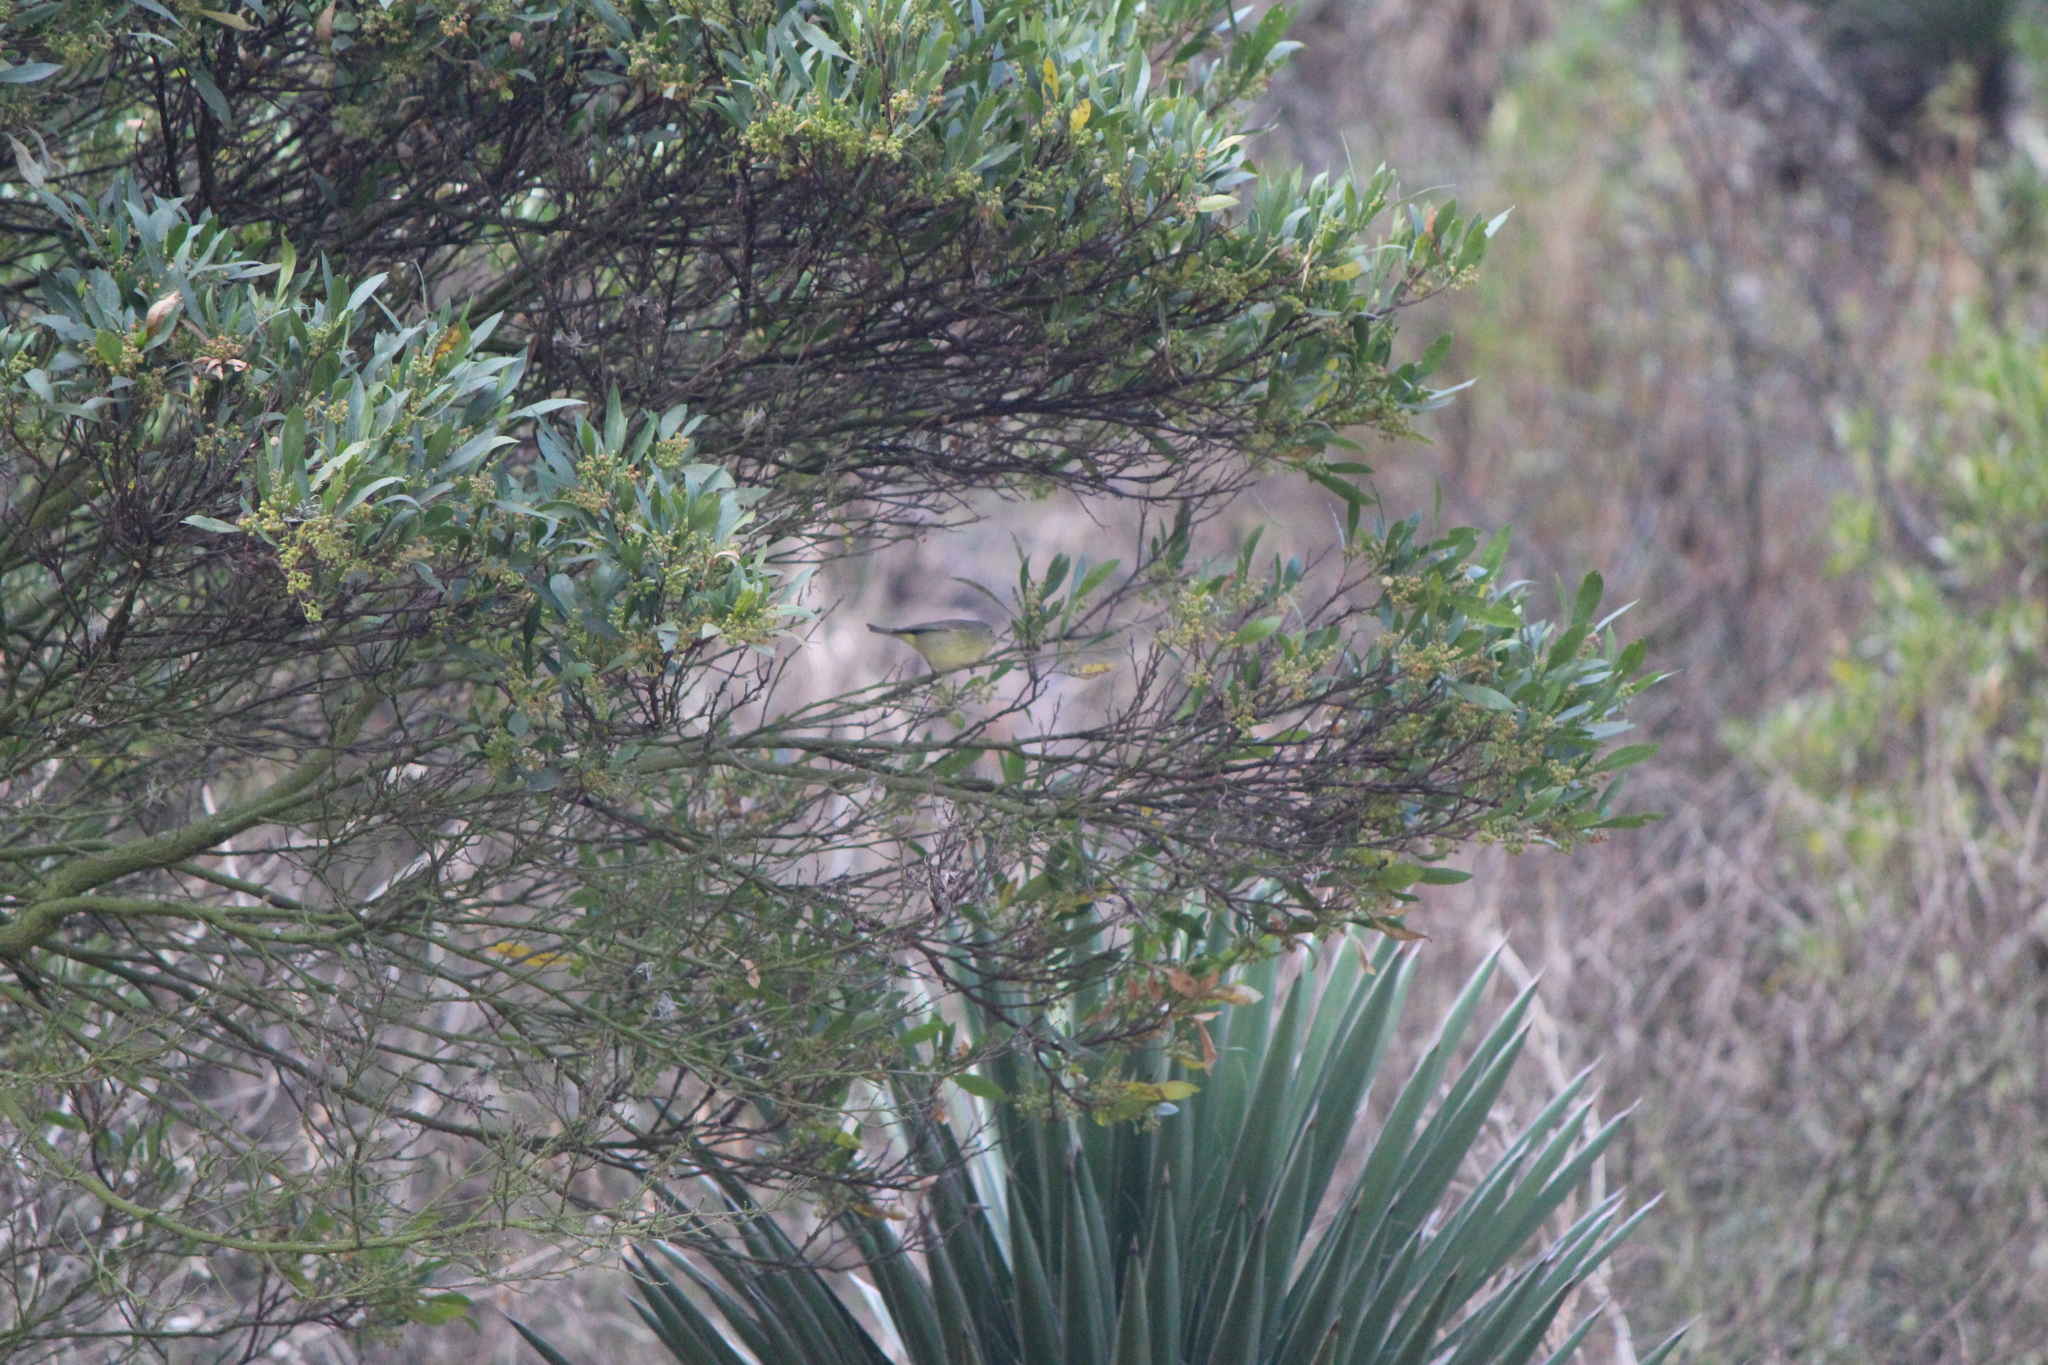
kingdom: Animalia
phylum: Chordata
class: Aves
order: Passeriformes
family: Parulidae
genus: Leiothlypis
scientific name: Leiothlypis celata
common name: Orange-crowned warbler
